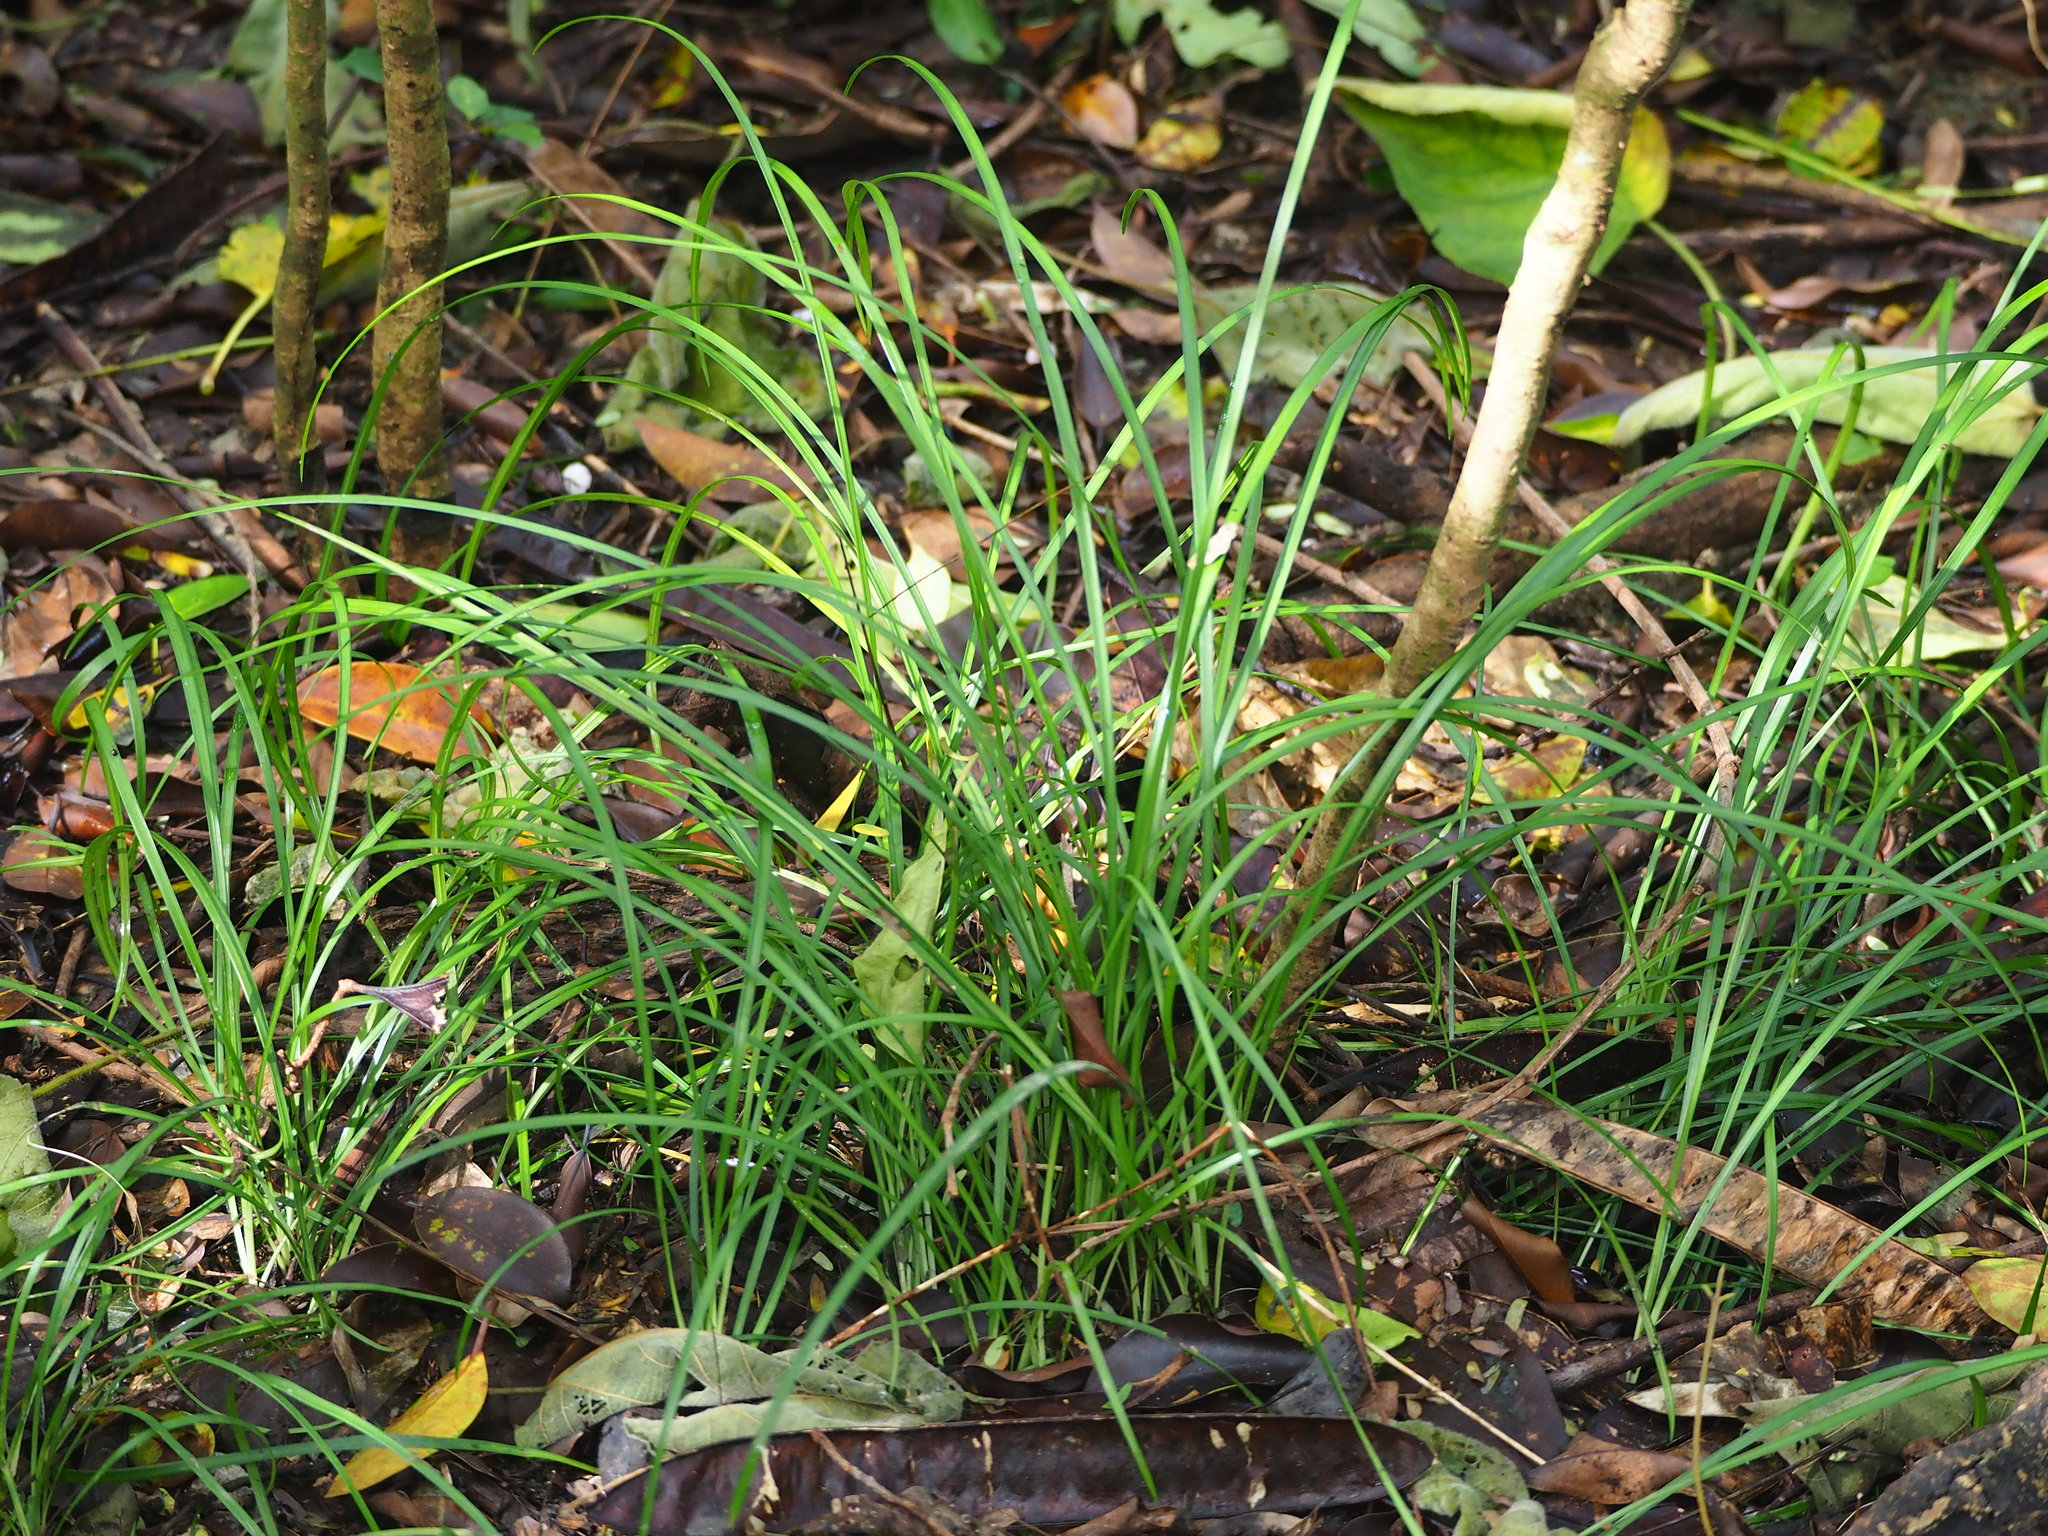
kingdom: Plantae
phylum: Tracheophyta
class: Liliopsida
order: Asparagales
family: Asparagaceae
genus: Ophiopogon
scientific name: Ophiopogon intermedius
